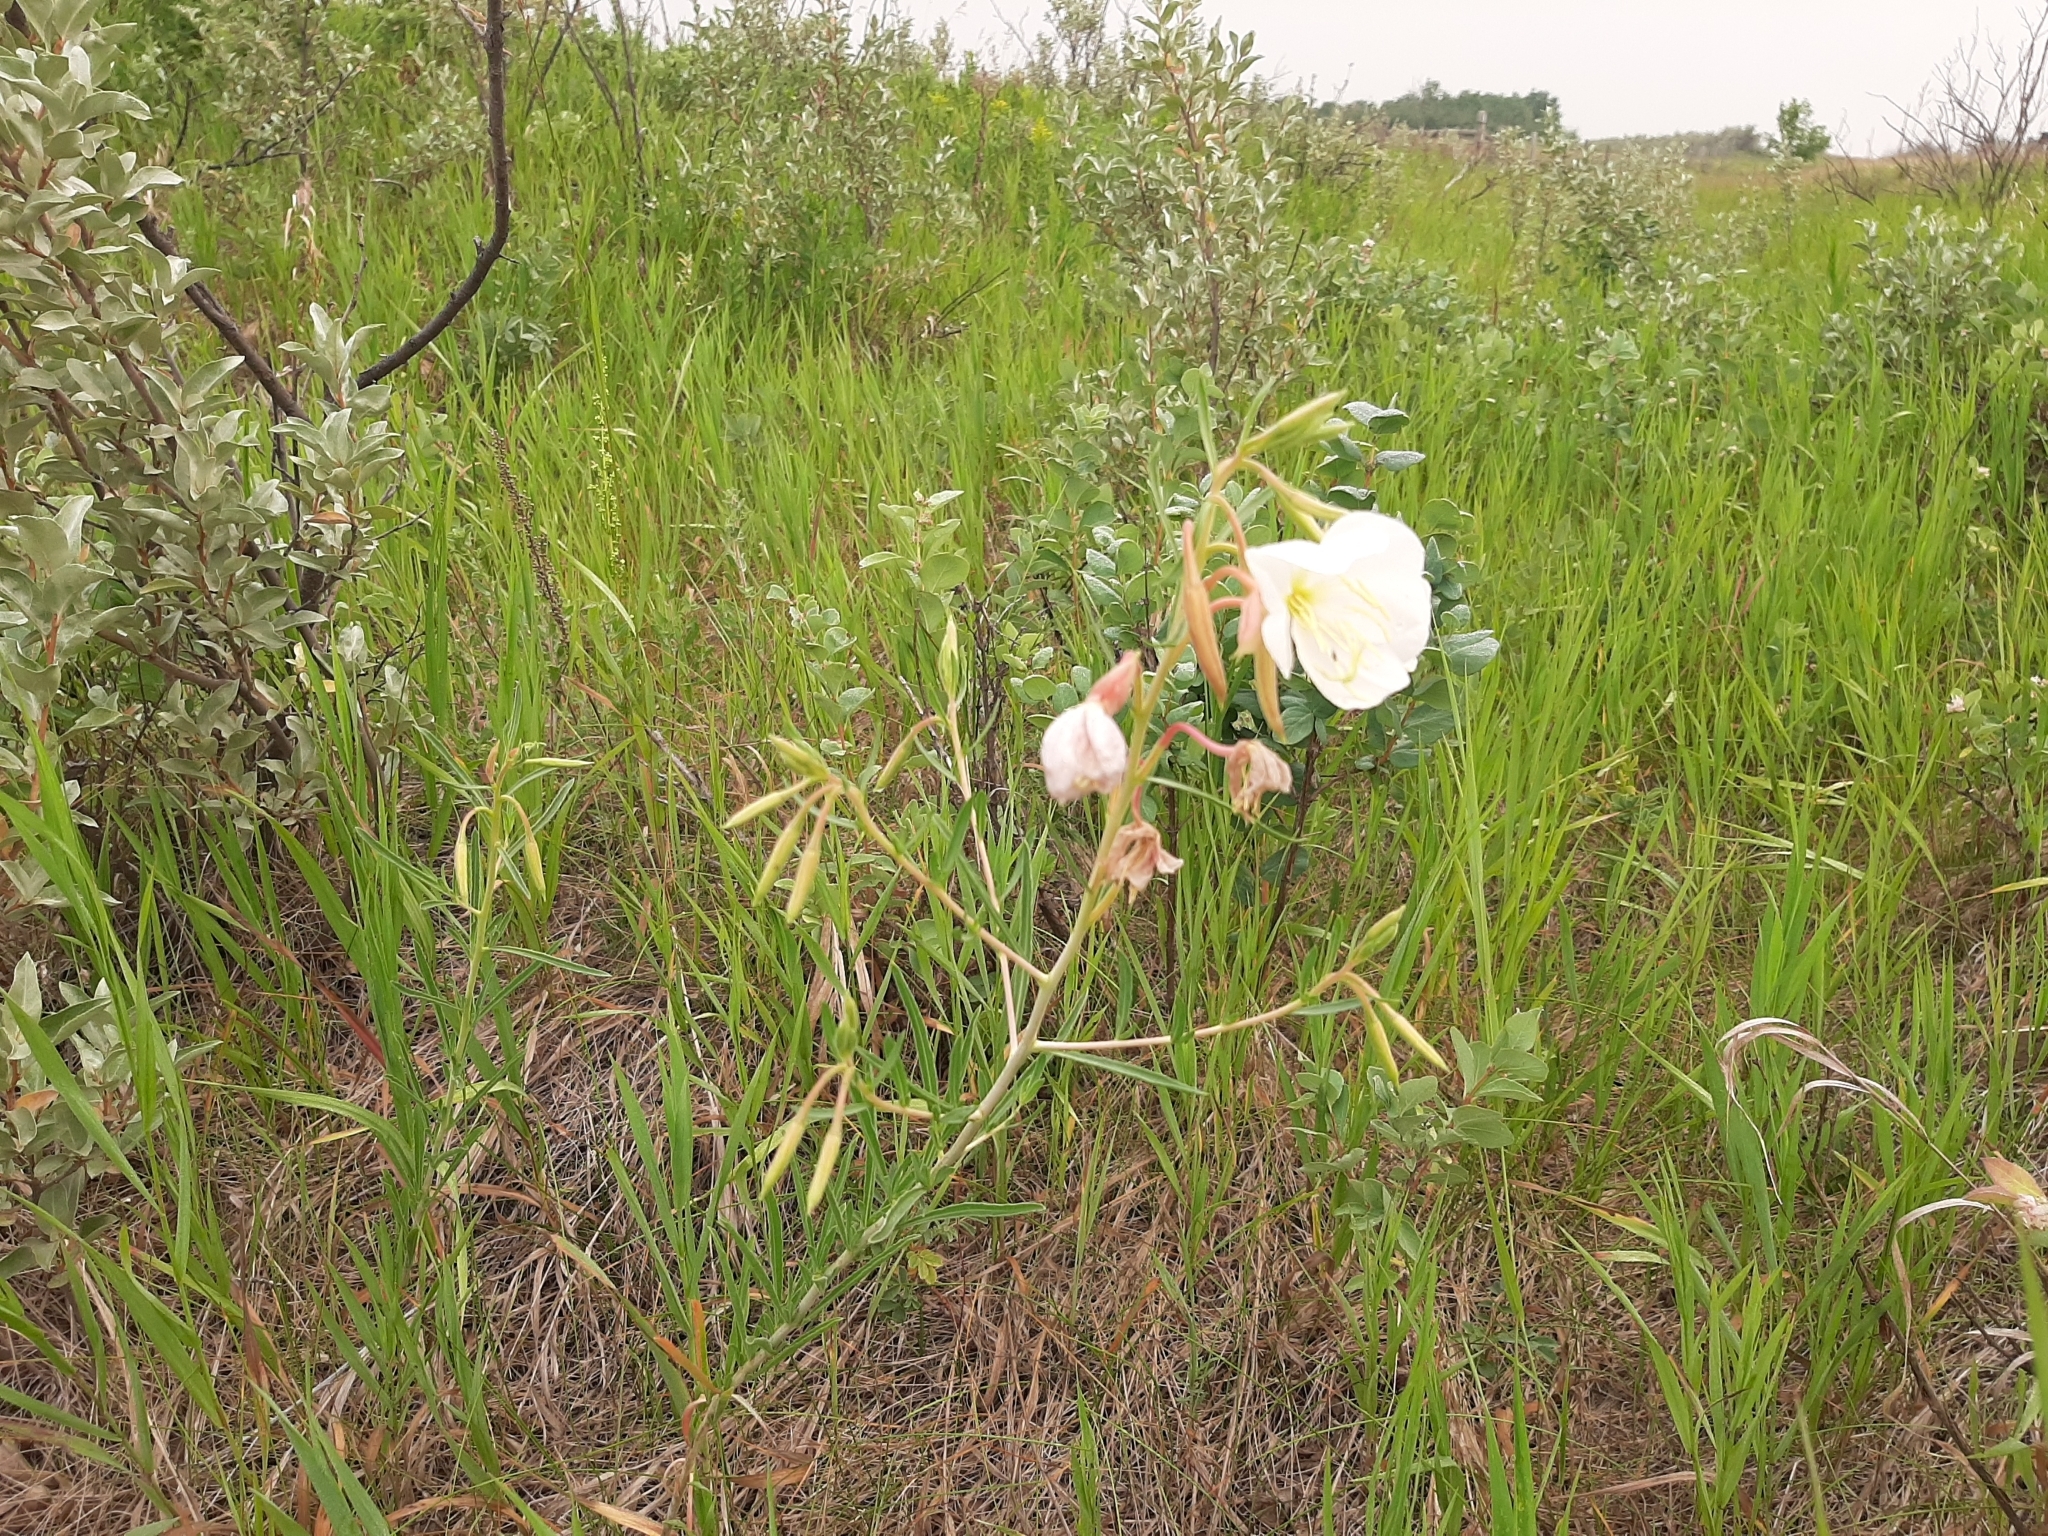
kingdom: Plantae
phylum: Tracheophyta
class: Magnoliopsida
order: Myrtales
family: Onagraceae
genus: Oenothera
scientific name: Oenothera nuttallii
